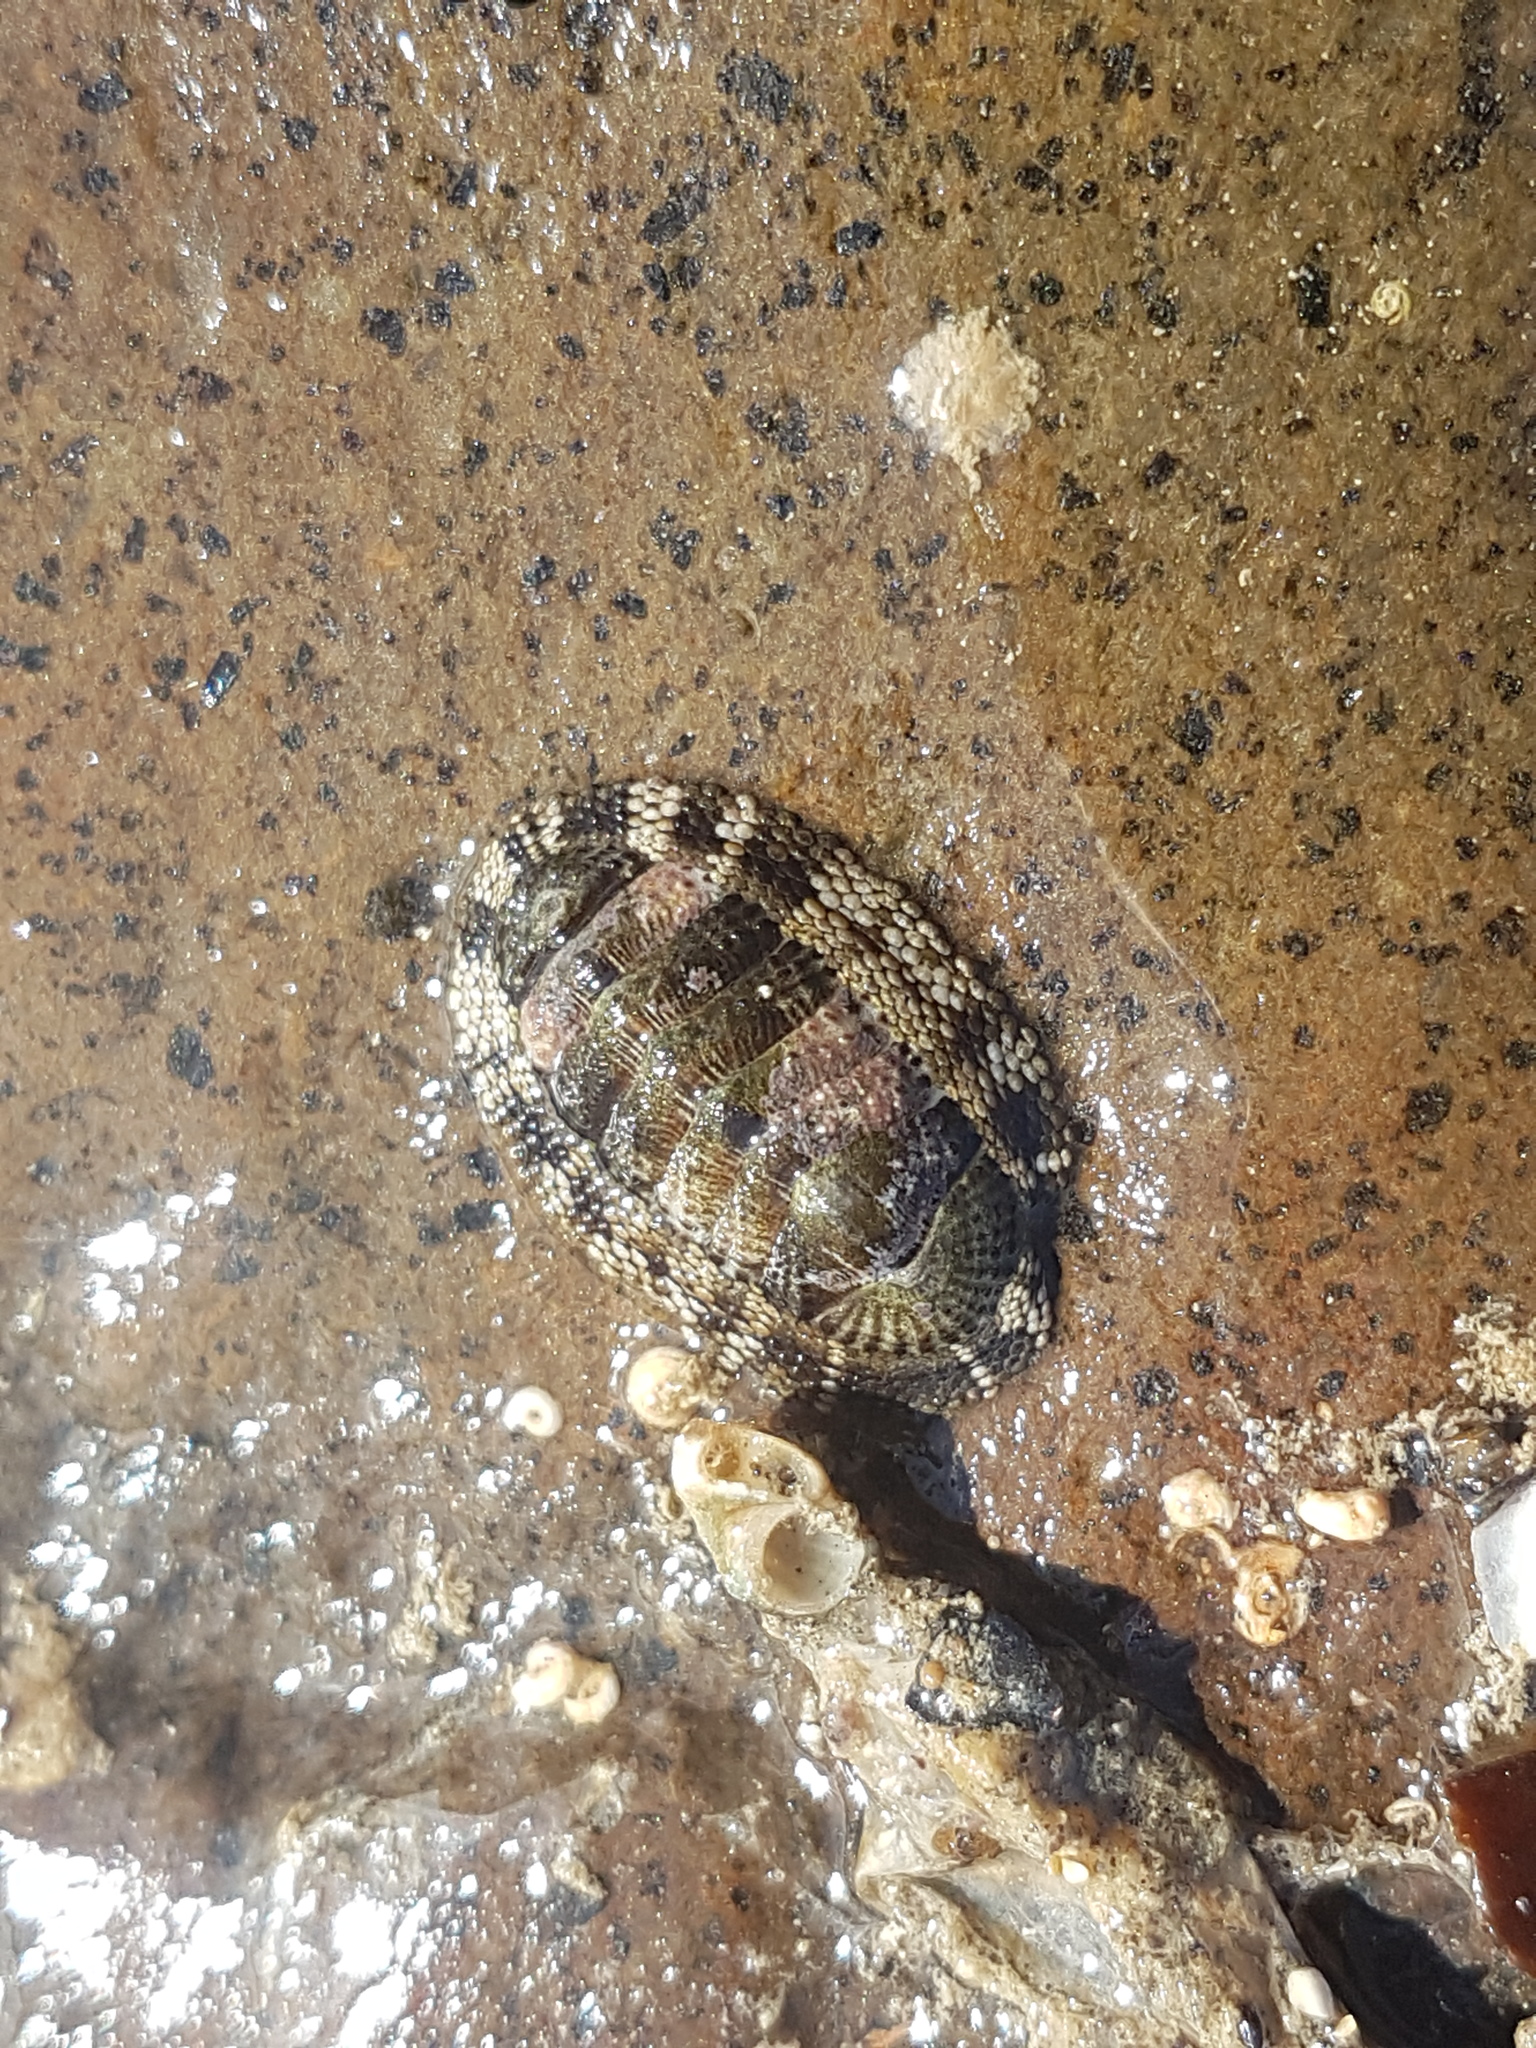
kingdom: Animalia
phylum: Mollusca
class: Polyplacophora
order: Chitonida
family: Chitonidae
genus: Sypharochiton
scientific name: Sypharochiton pelliserpentis
